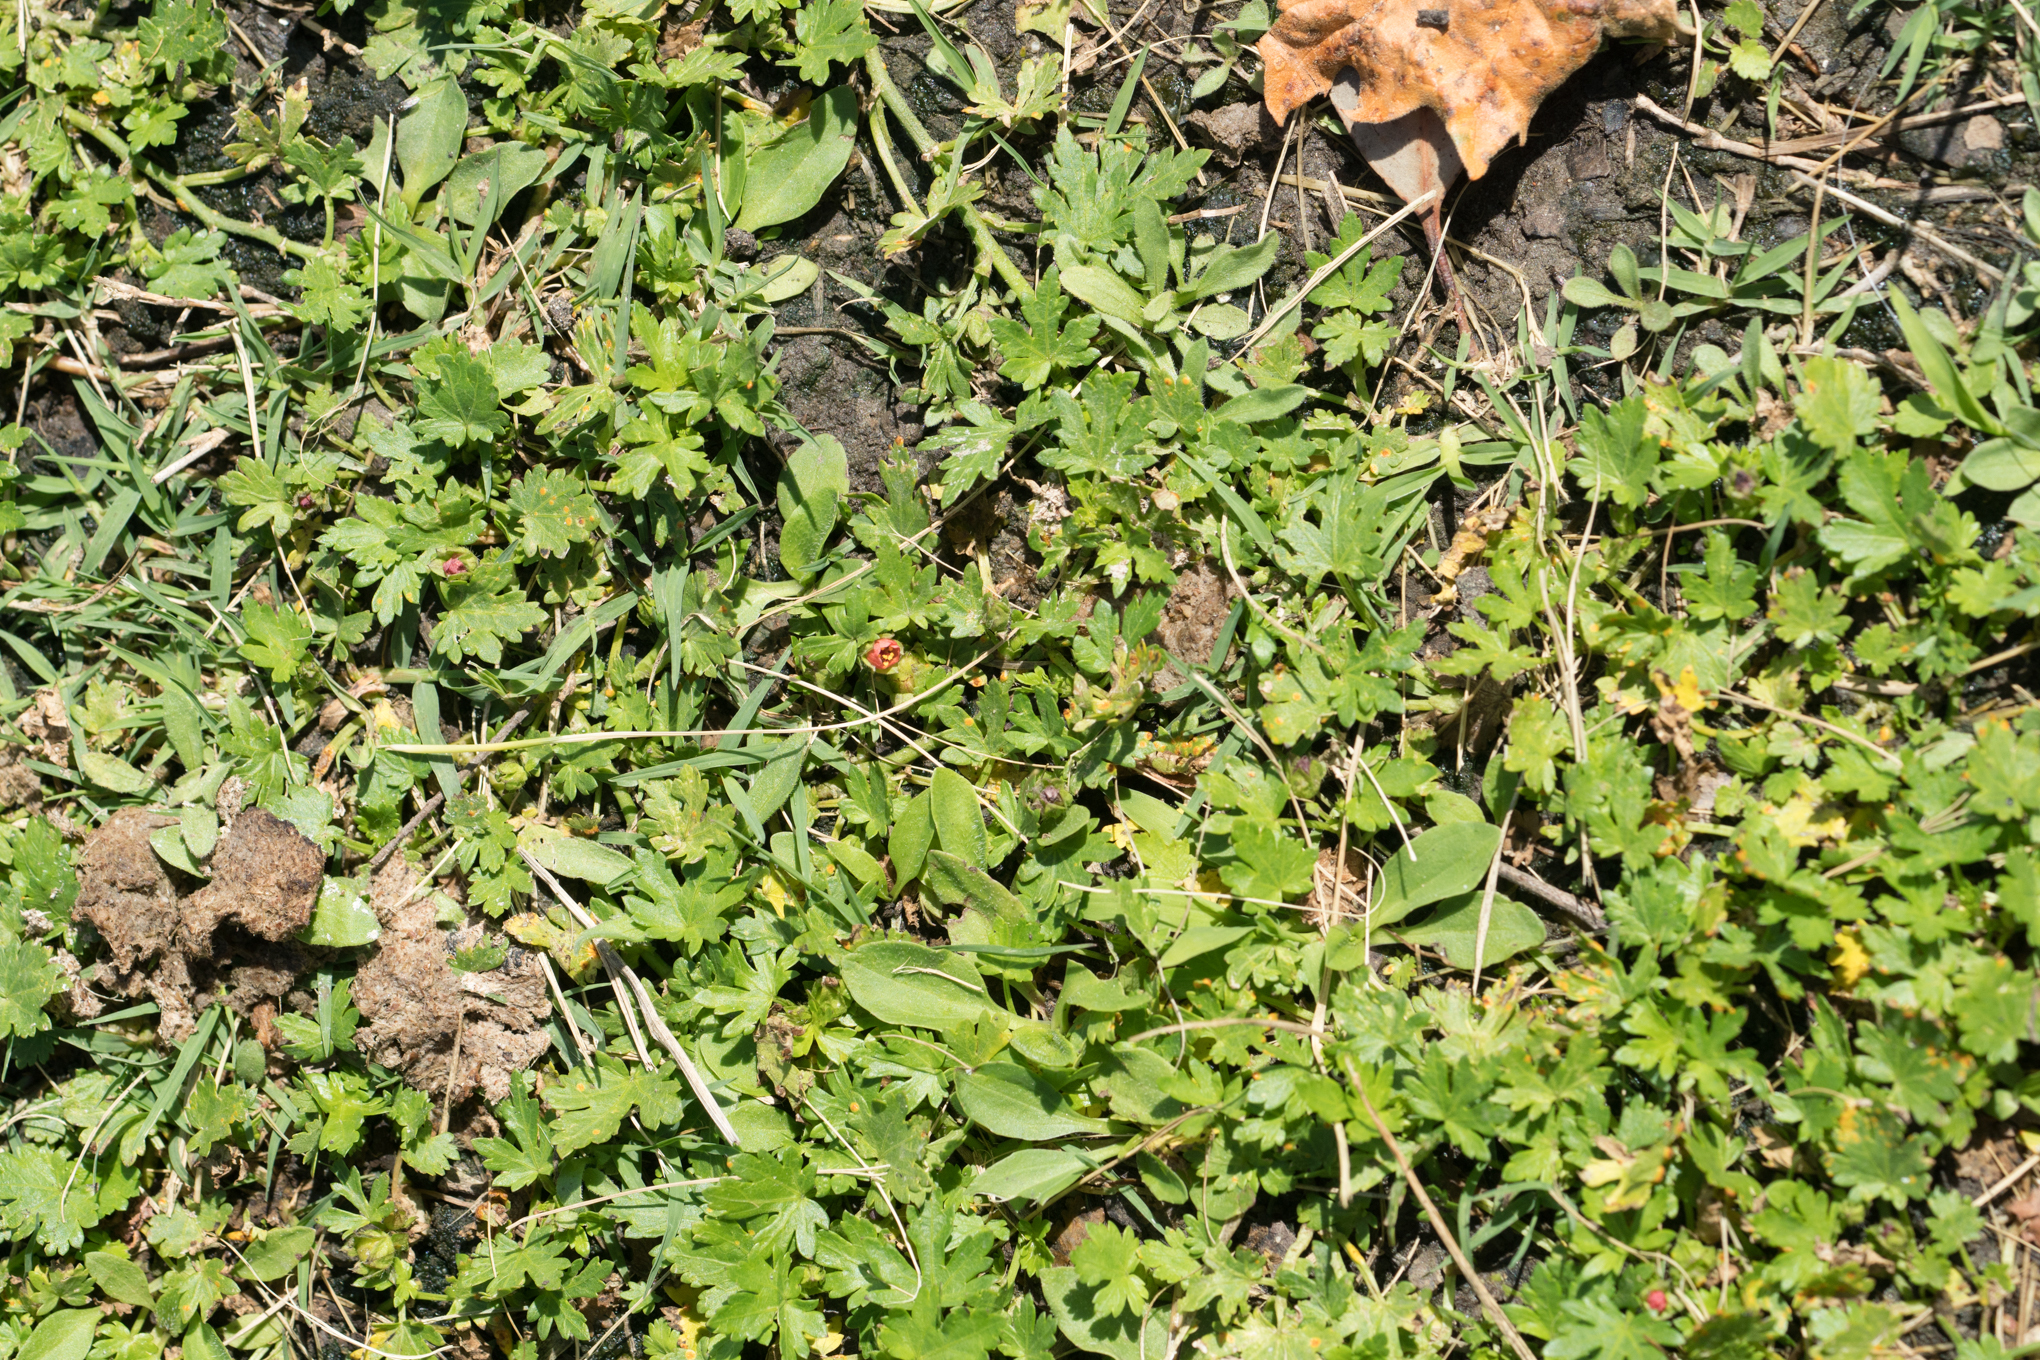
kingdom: Plantae
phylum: Tracheophyta
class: Magnoliopsida
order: Malvales
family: Malvaceae
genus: Modiola
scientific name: Modiola caroliniana
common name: Carolina bristlemallow
